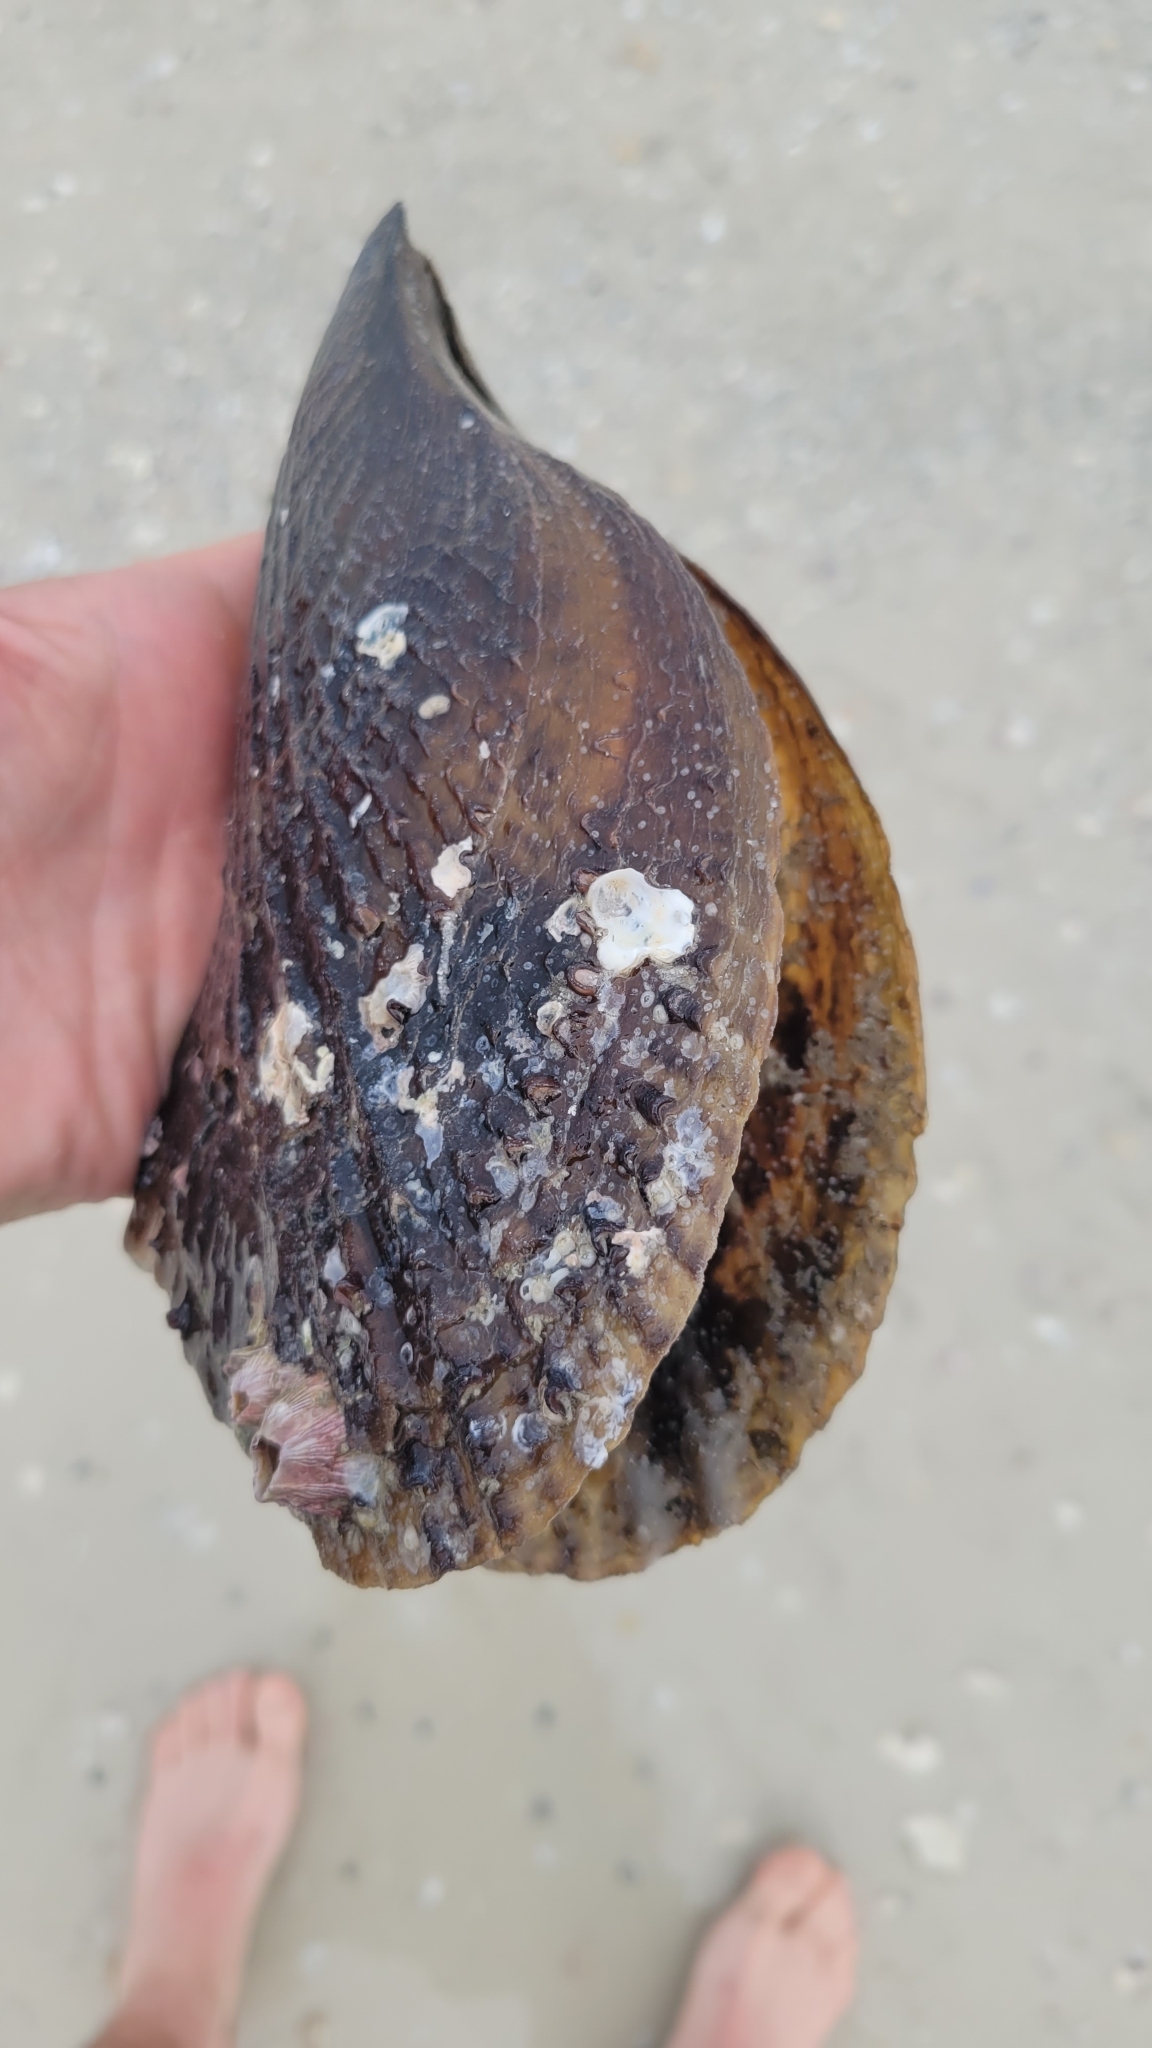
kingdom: Animalia
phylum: Mollusca
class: Bivalvia
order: Ostreida
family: Pinnidae
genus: Atrina
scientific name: Atrina rigida
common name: Stiff penshell
